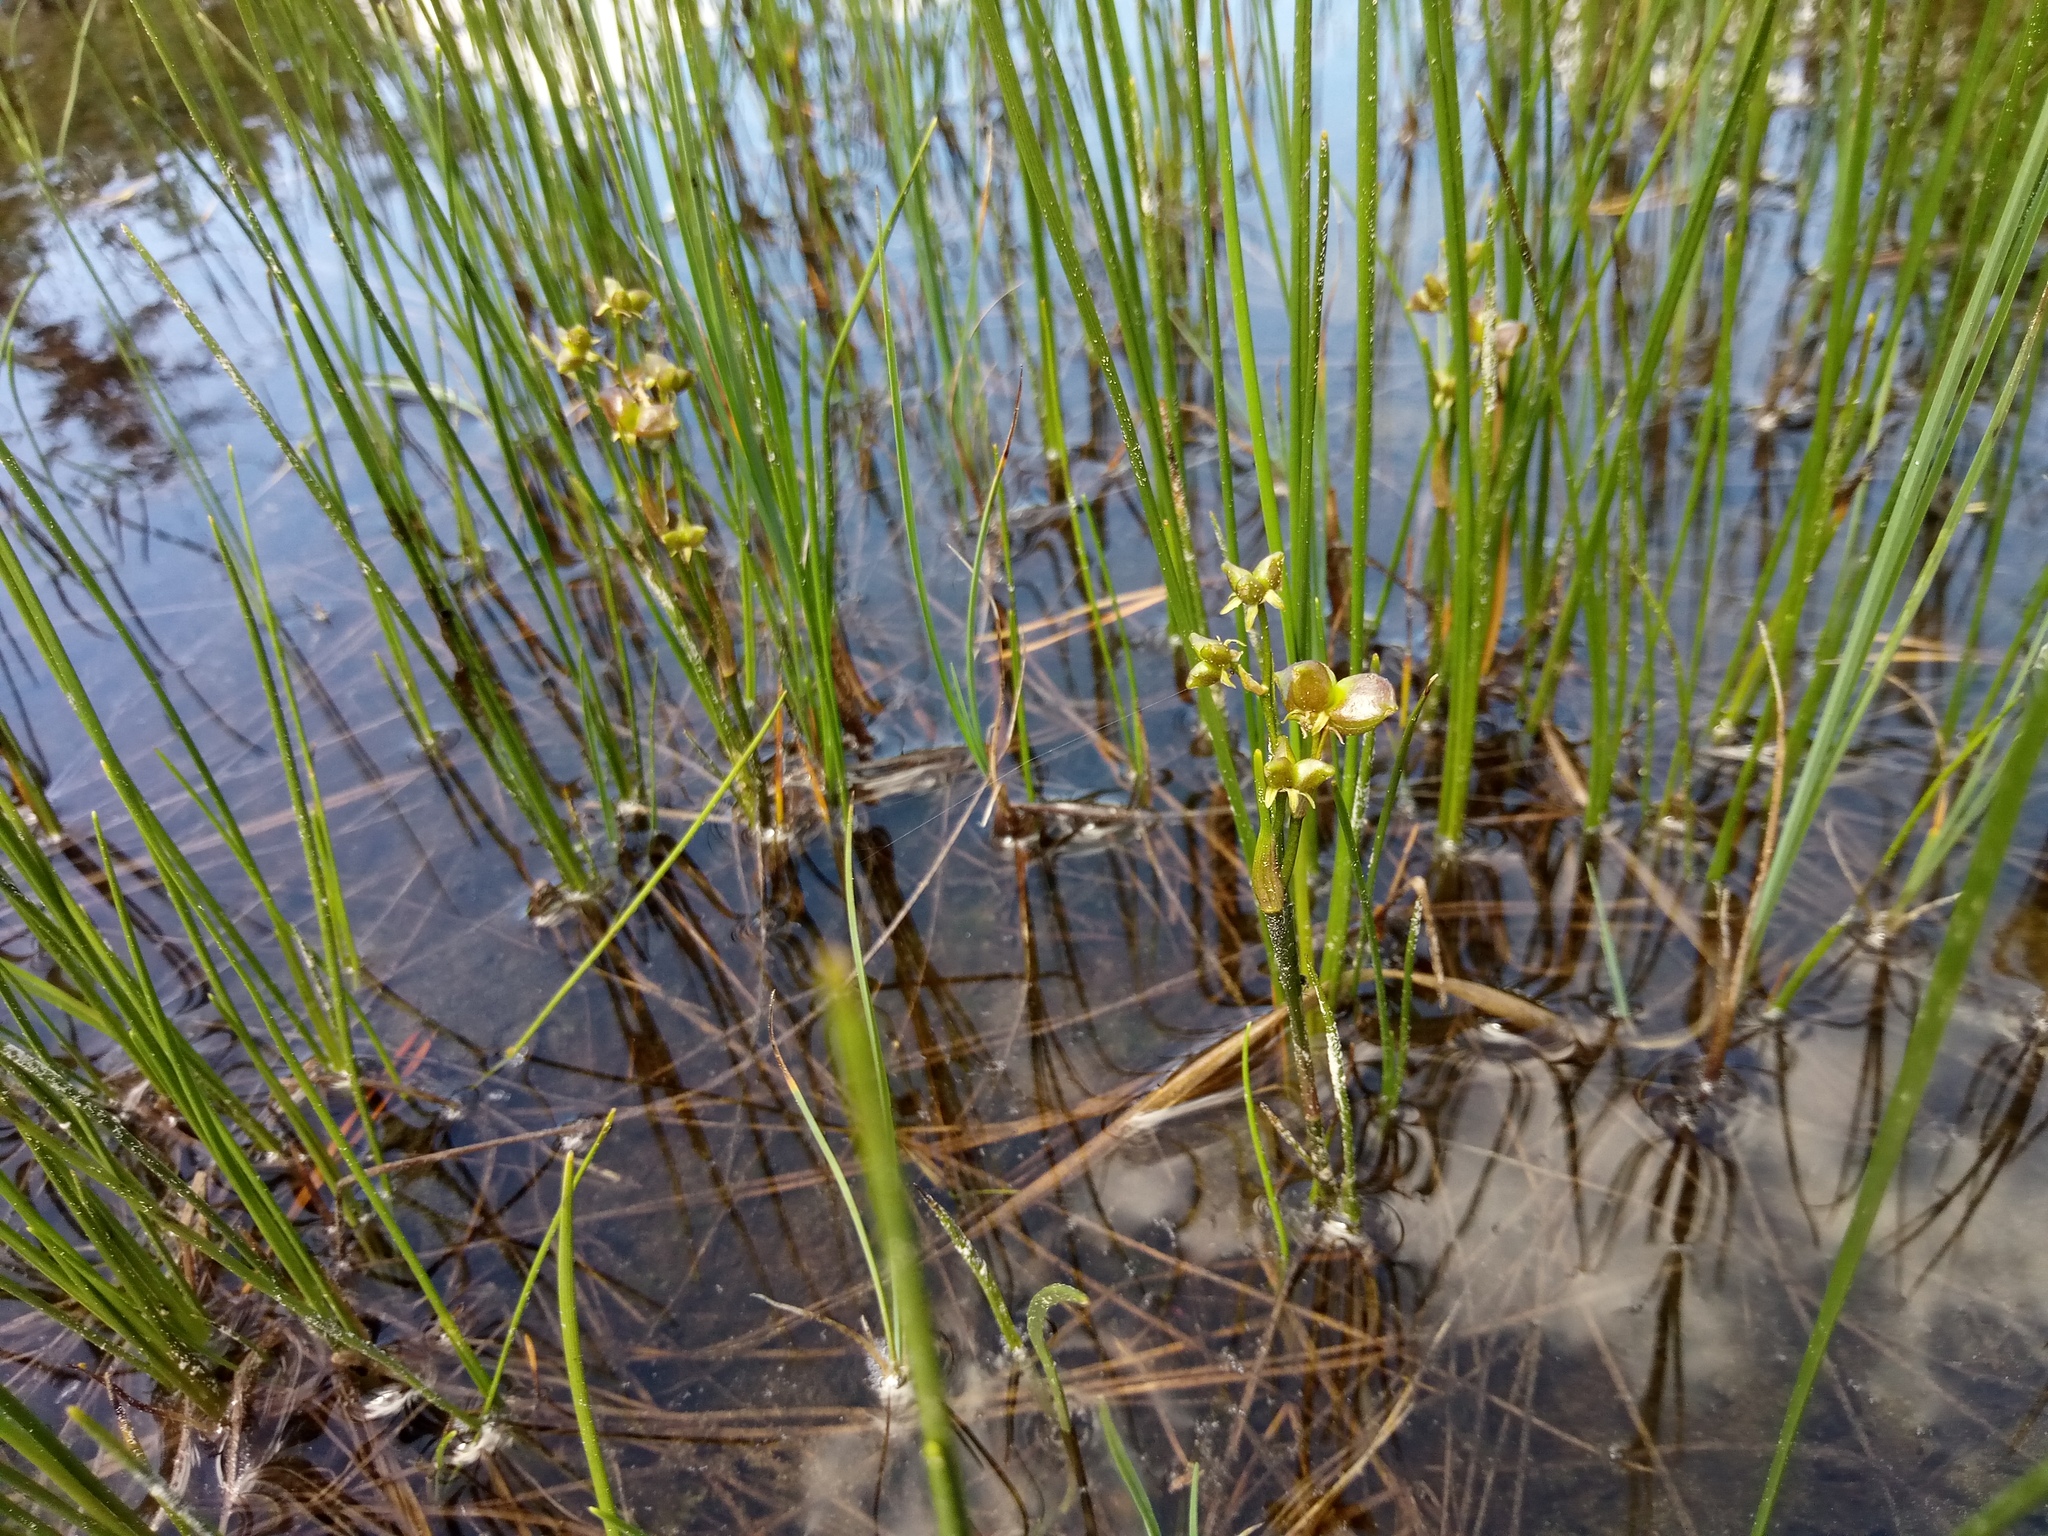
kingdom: Plantae
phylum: Tracheophyta
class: Liliopsida
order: Alismatales
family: Scheuchzeriaceae
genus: Scheuchzeria
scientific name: Scheuchzeria palustris
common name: Rannoch-rush
